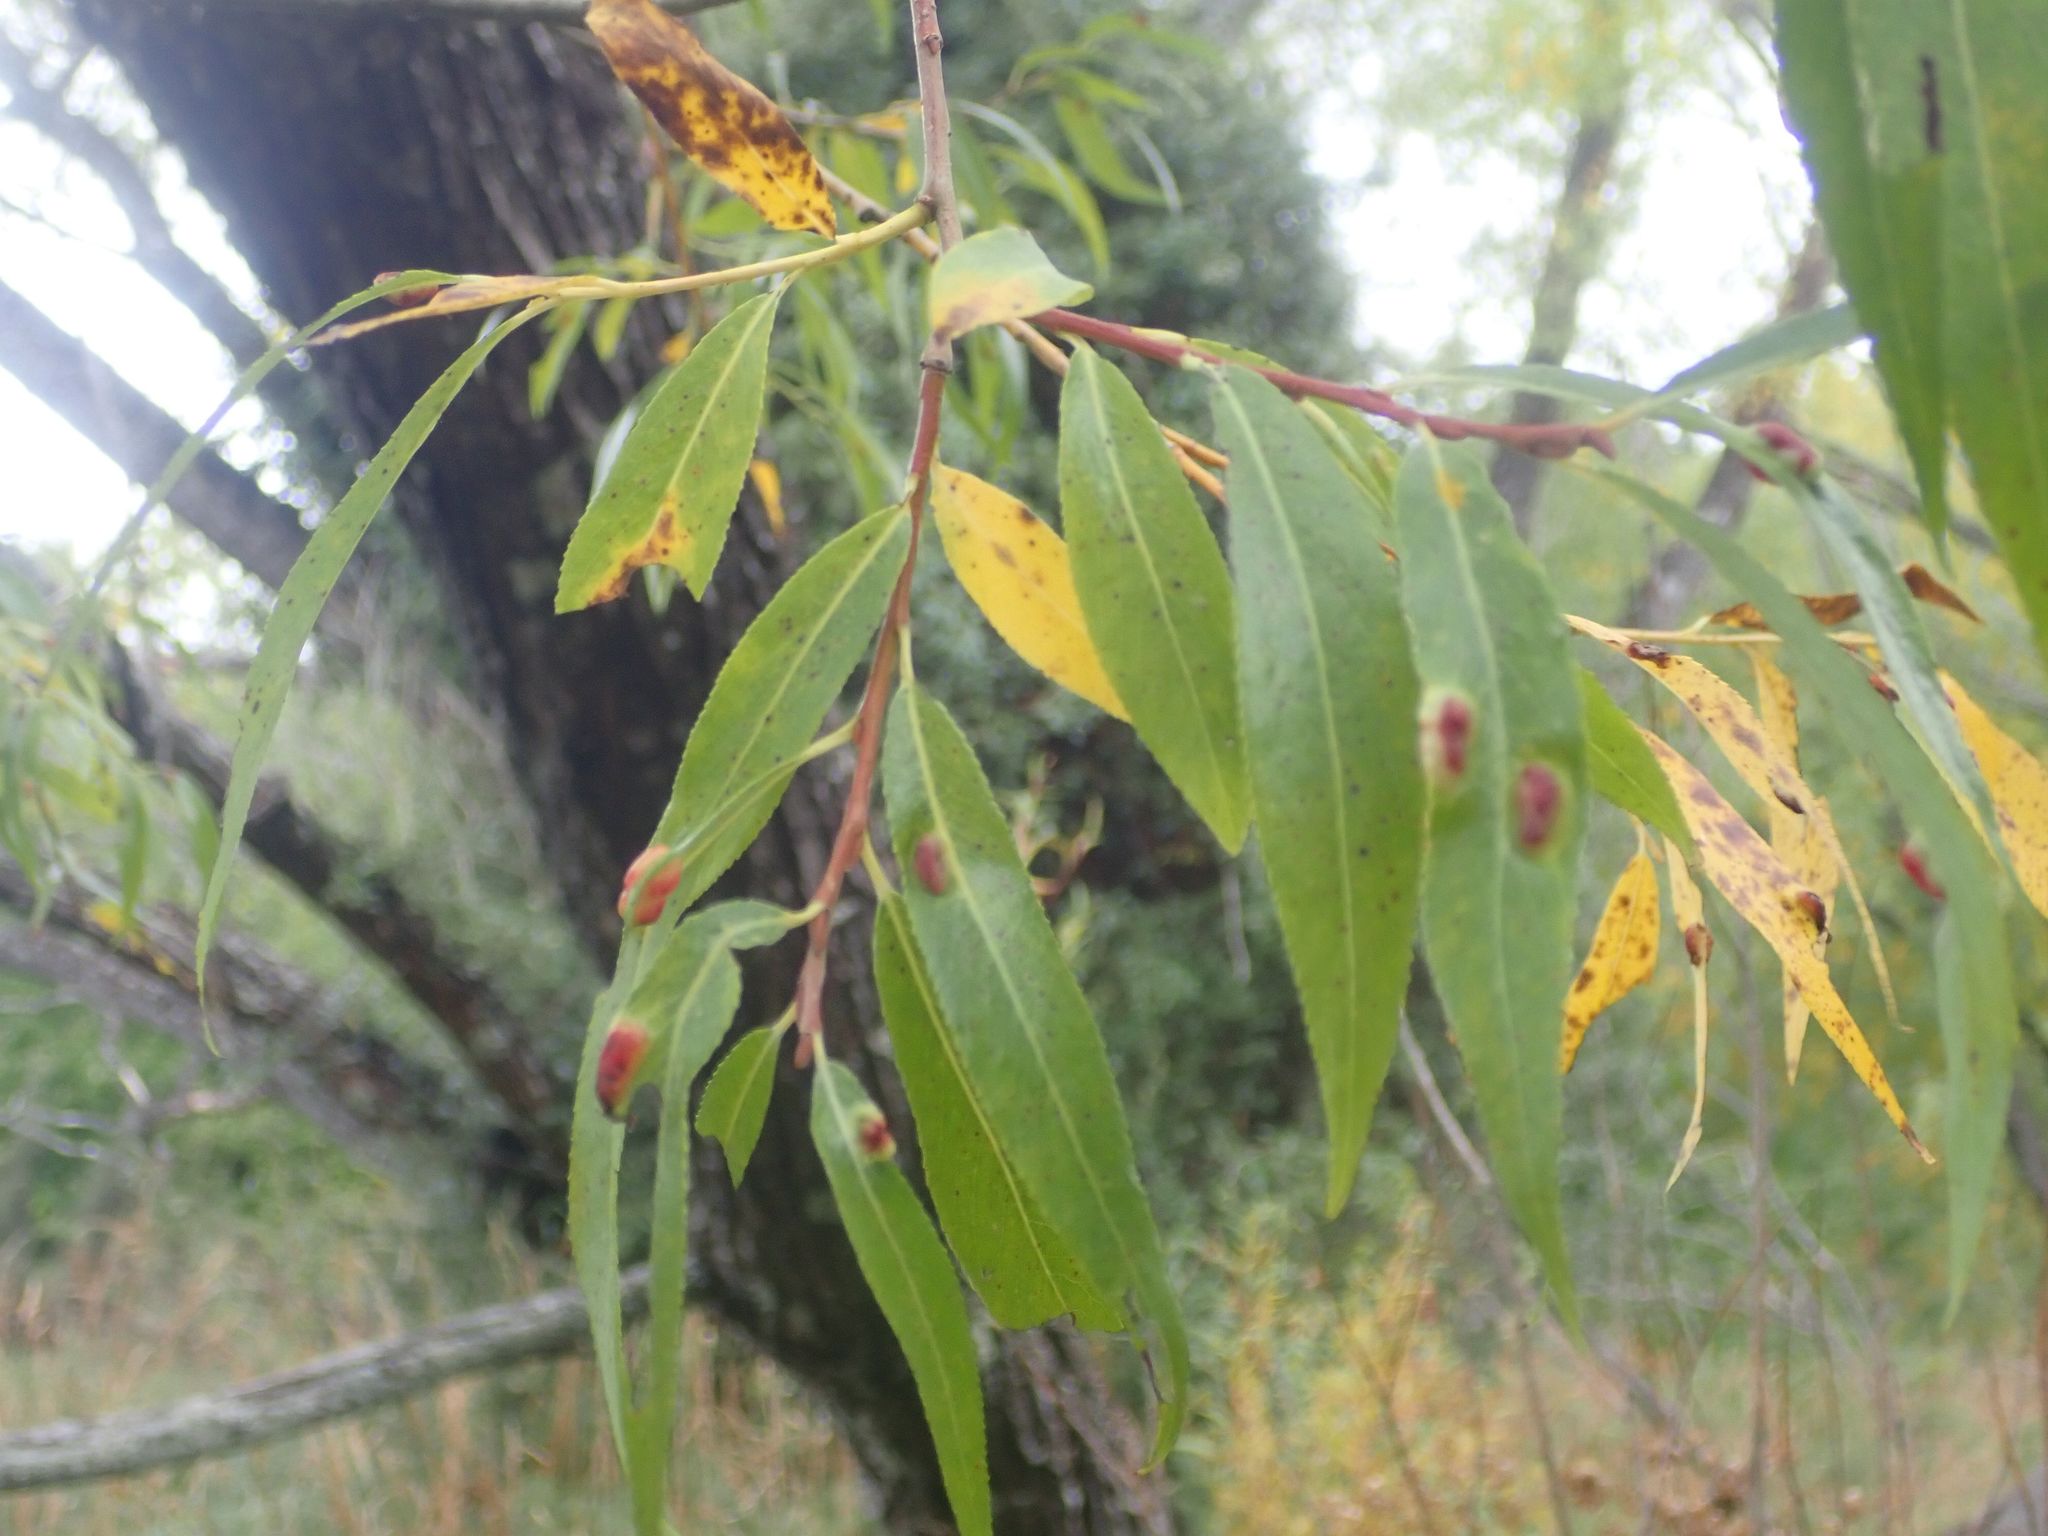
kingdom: Plantae
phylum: Tracheophyta
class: Magnoliopsida
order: Malpighiales
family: Salicaceae
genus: Salix
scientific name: Salix fragilis
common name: Crack willow
